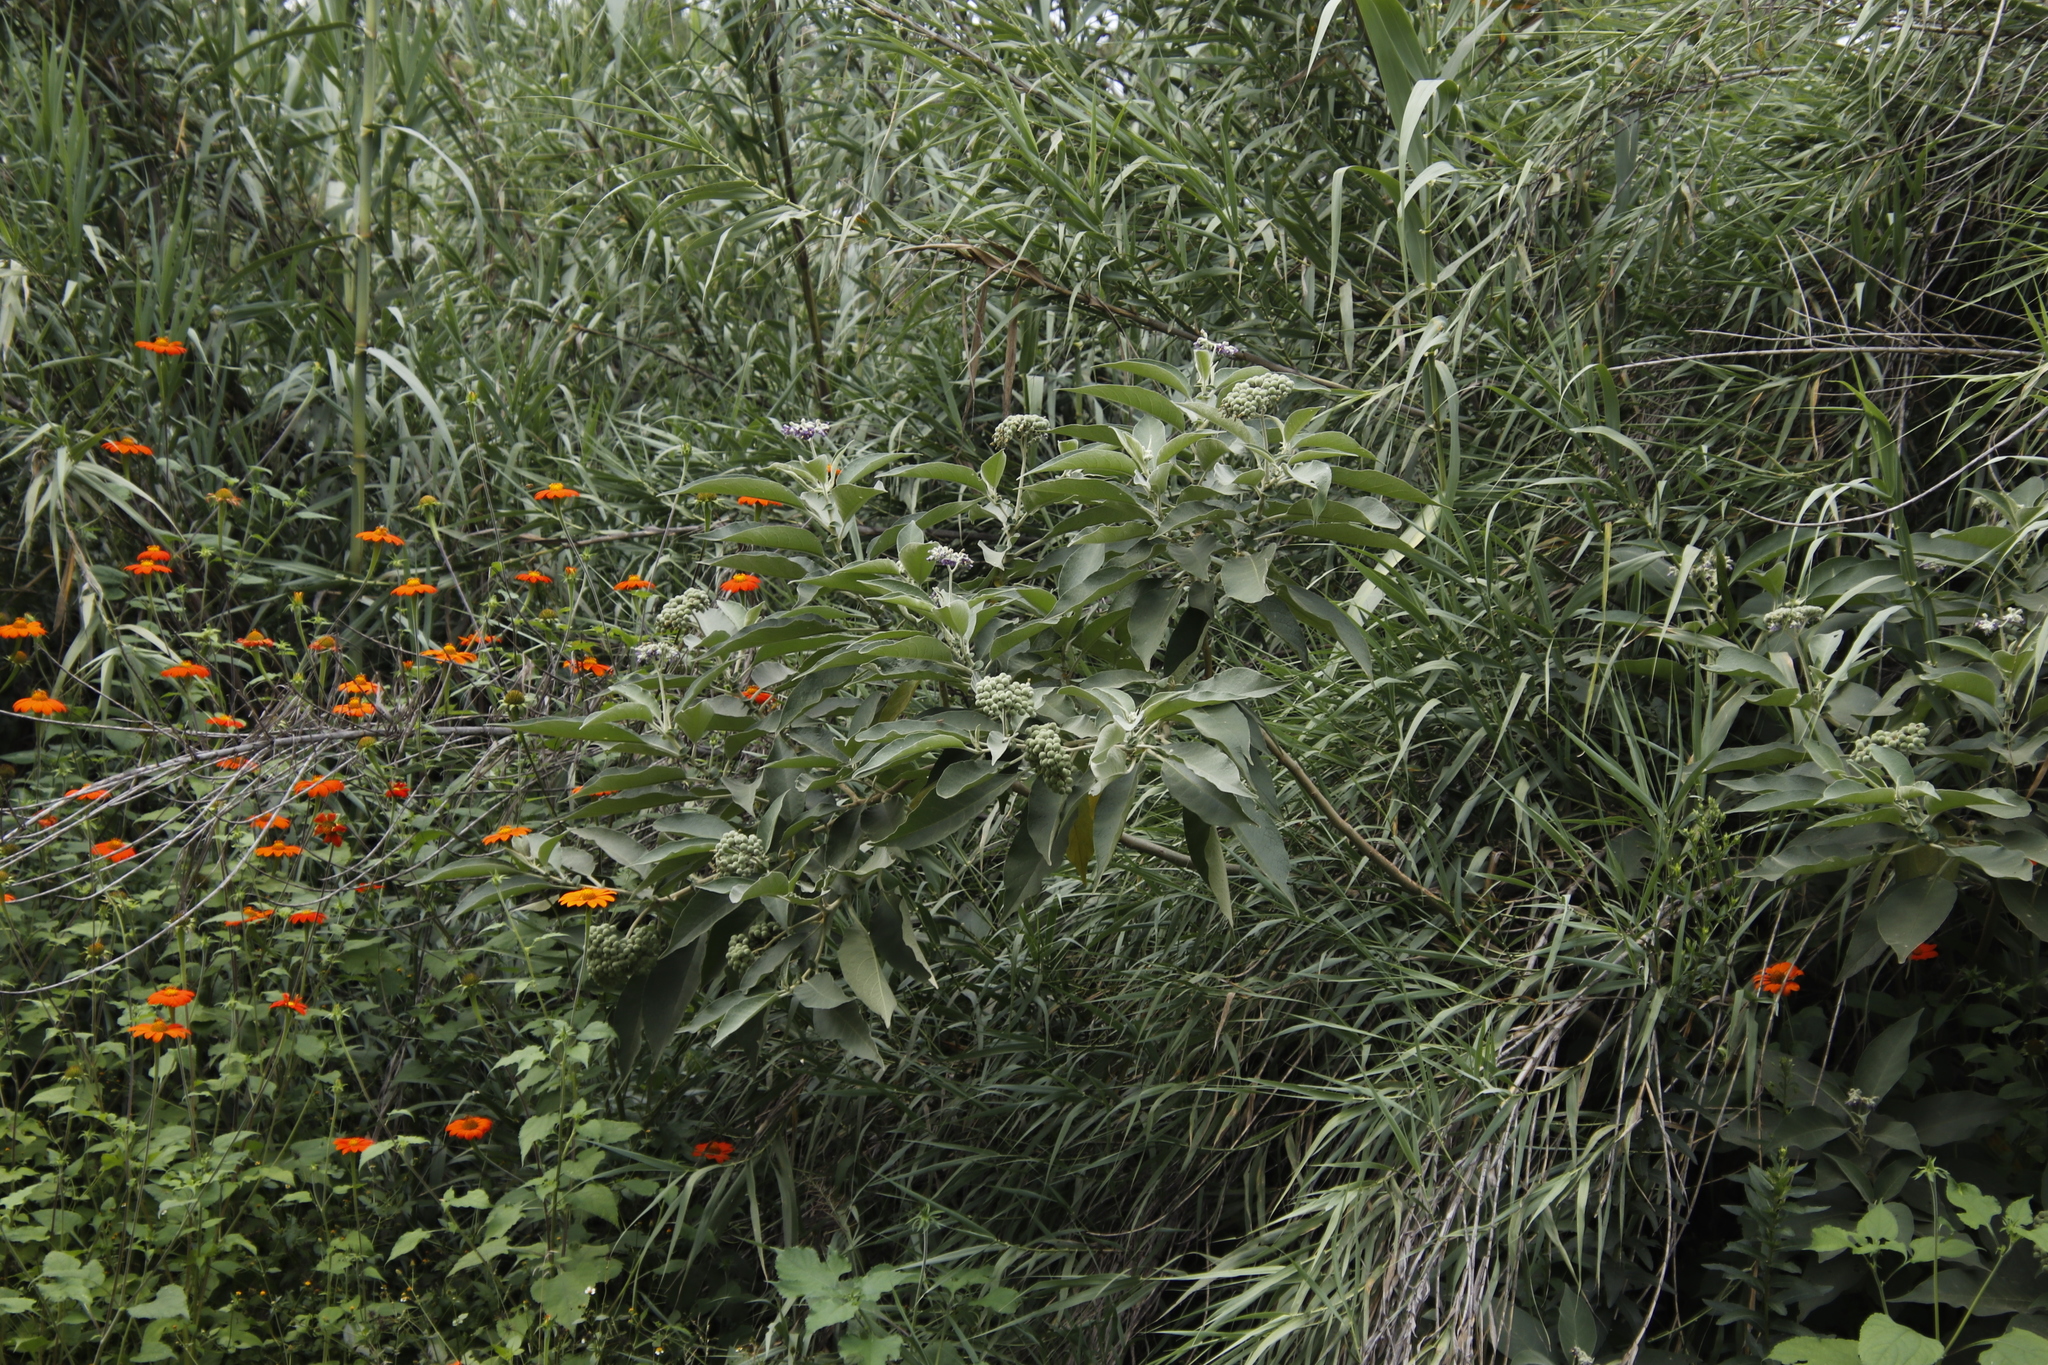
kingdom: Plantae
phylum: Tracheophyta
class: Magnoliopsida
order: Solanales
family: Solanaceae
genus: Solanum
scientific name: Solanum mauritianum
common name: Earleaf nightshade
